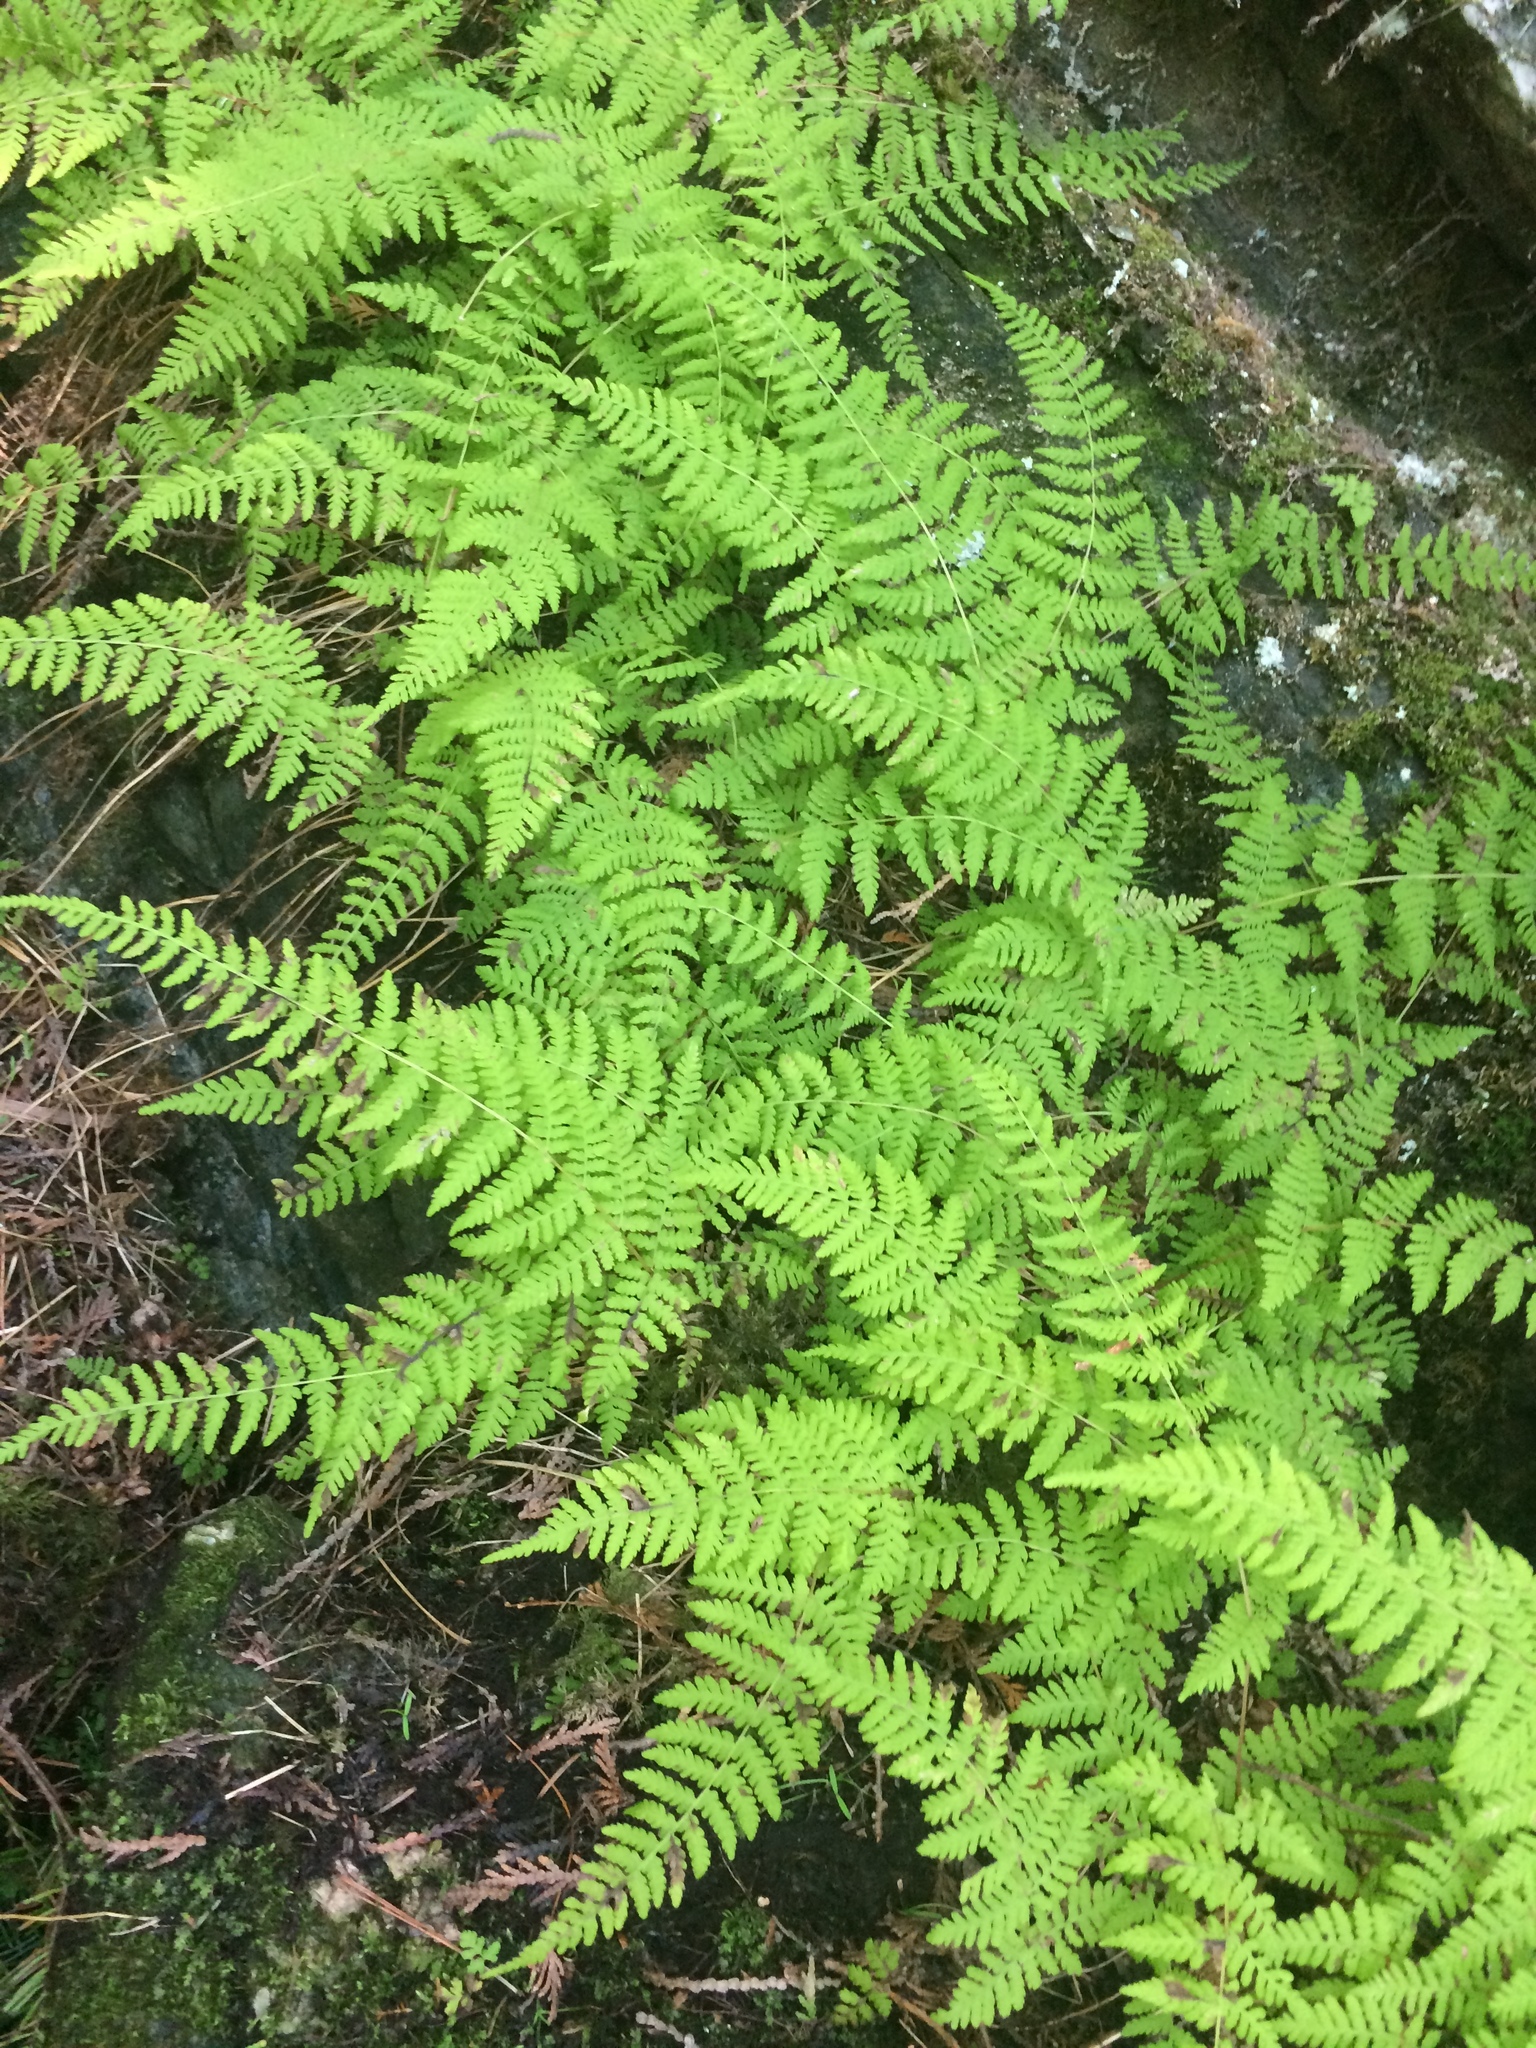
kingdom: Plantae
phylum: Tracheophyta
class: Polypodiopsida
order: Polypodiales
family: Cystopteridaceae
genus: Cystopteris
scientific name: Cystopteris bulbifera
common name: Bulblet bladder fern
